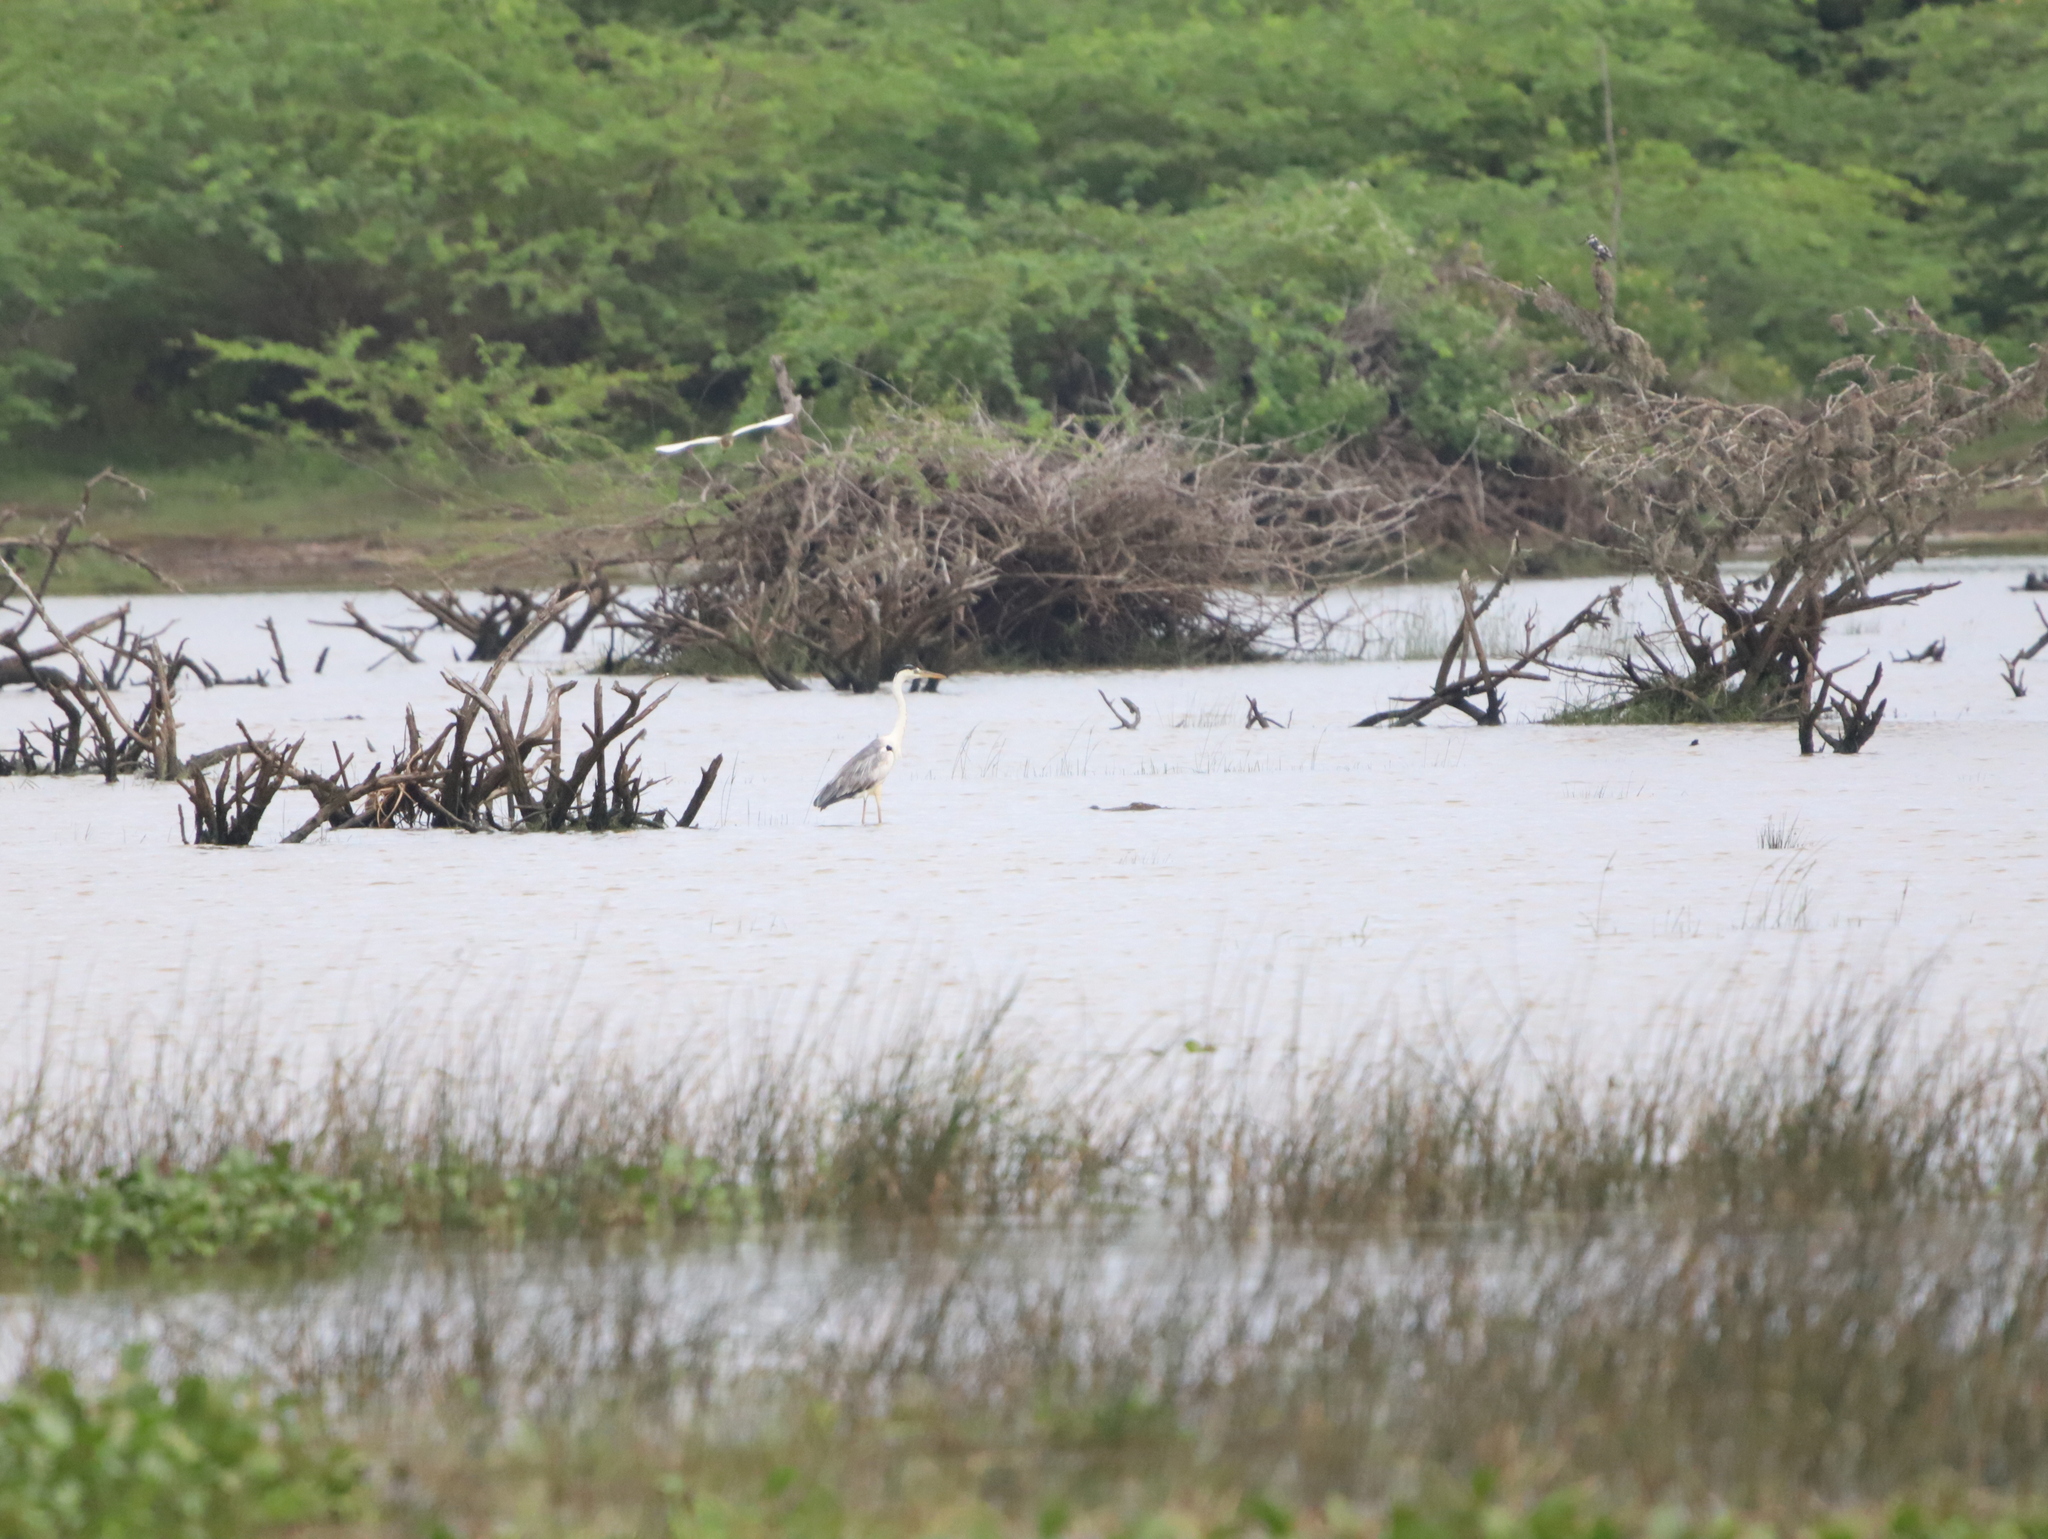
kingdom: Animalia
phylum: Chordata
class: Crocodylia
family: Crocodylidae
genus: Crocodylus
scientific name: Crocodylus palustris
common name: Mugger crocodile
